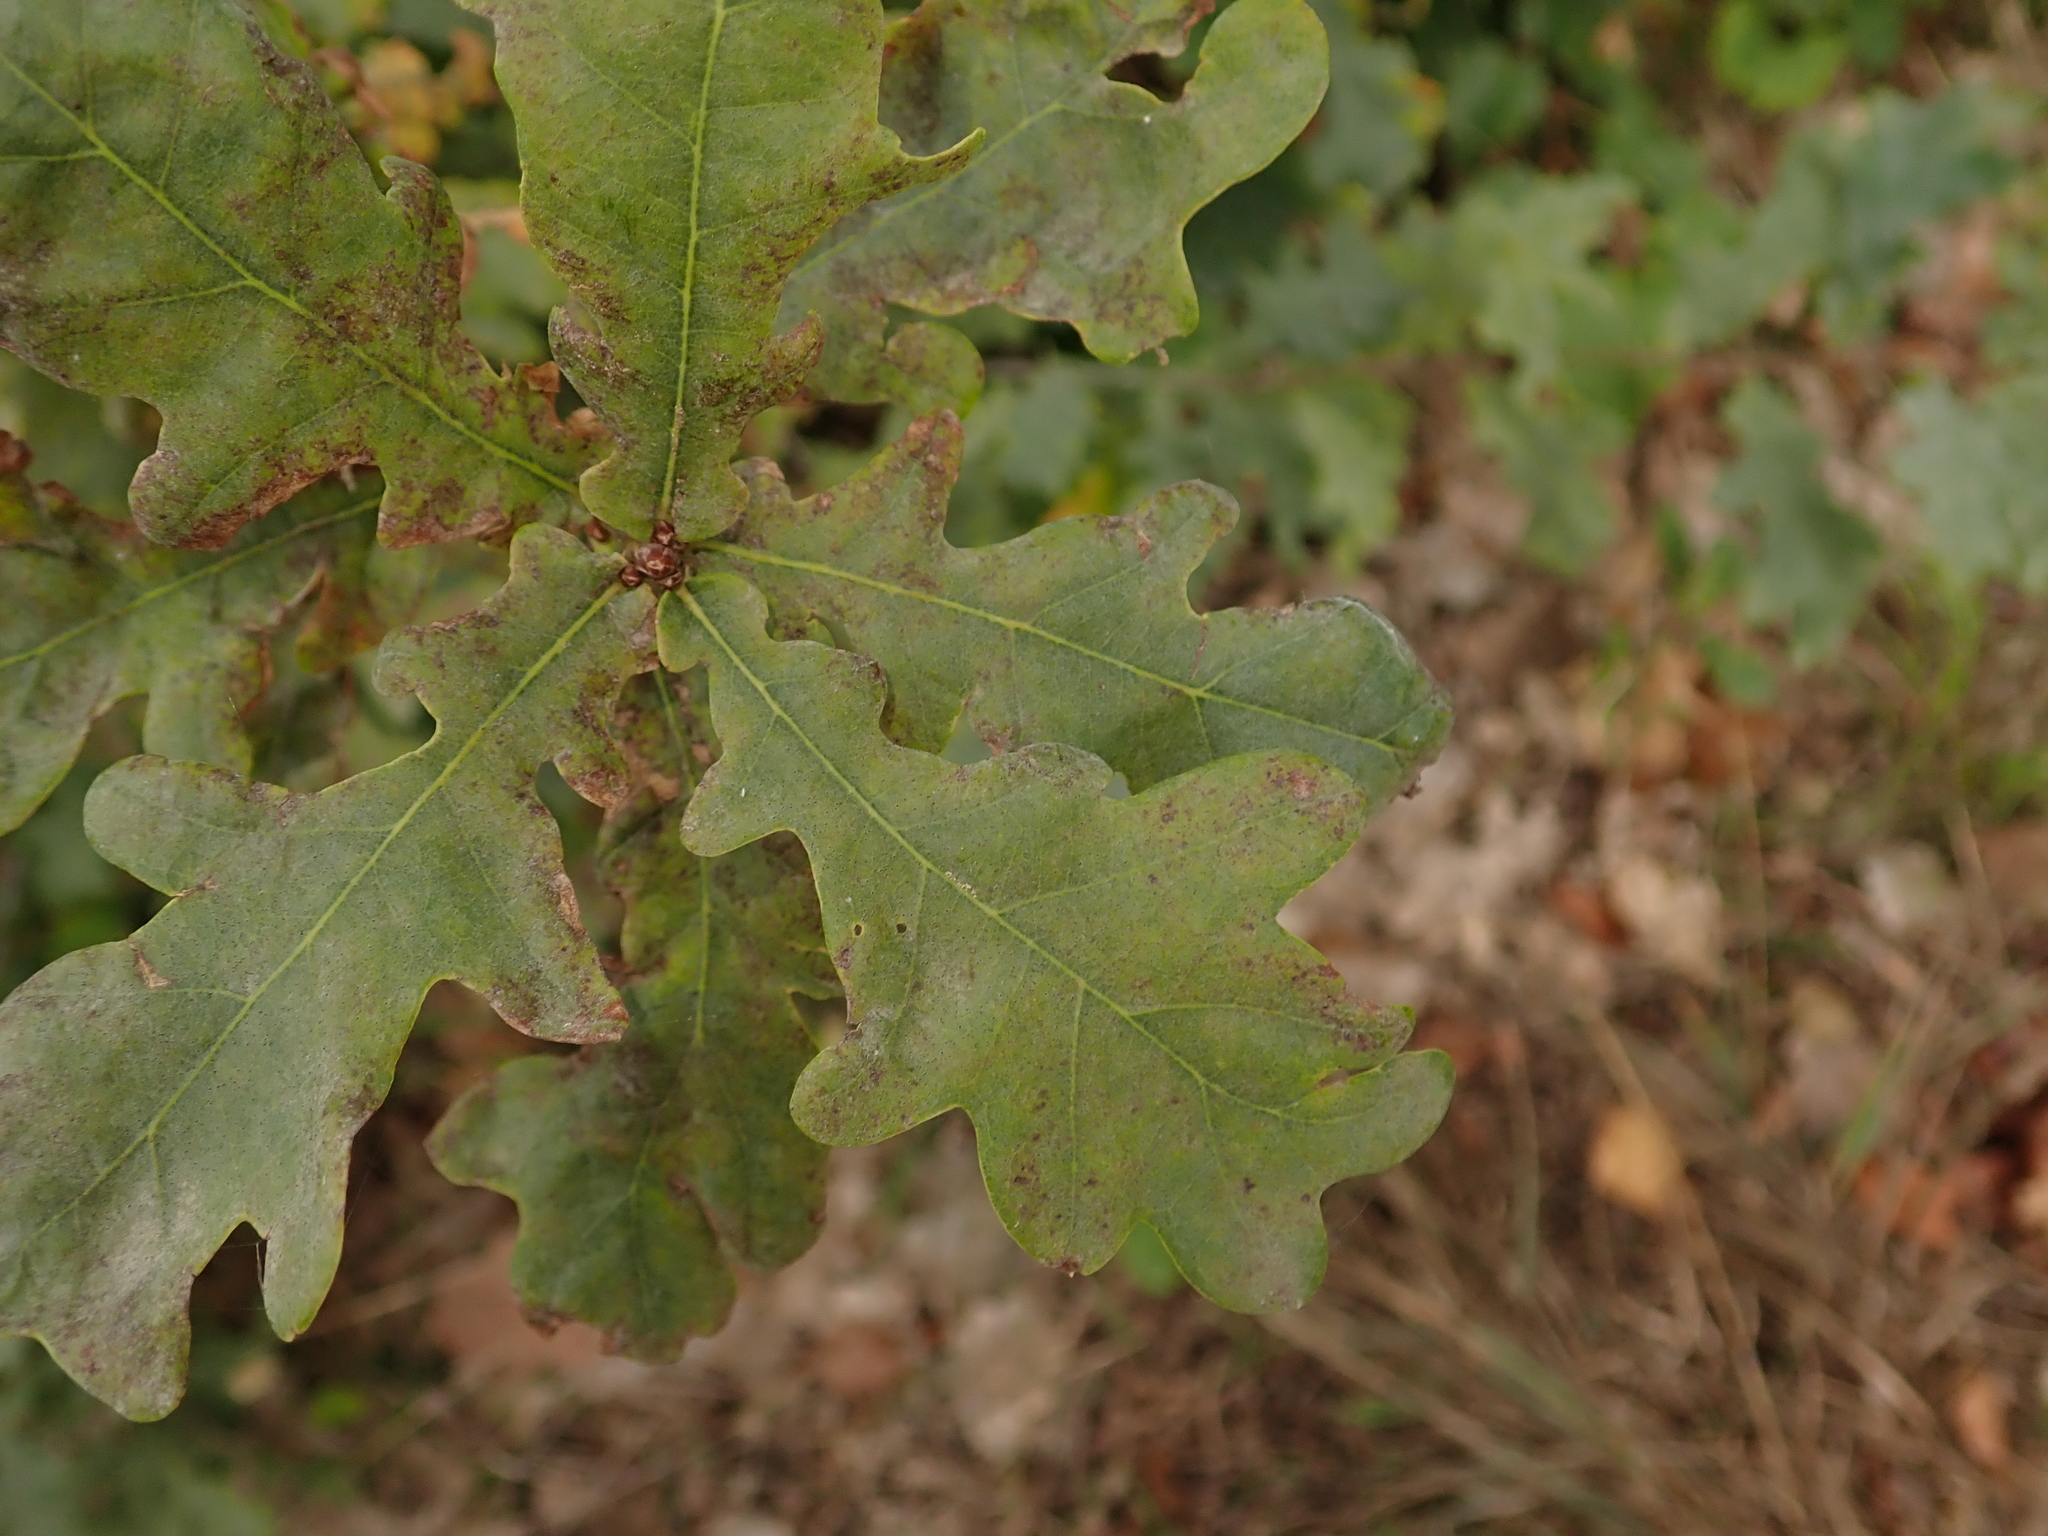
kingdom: Plantae
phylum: Tracheophyta
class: Magnoliopsida
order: Fagales
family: Fagaceae
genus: Quercus
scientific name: Quercus robur
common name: Pedunculate oak
